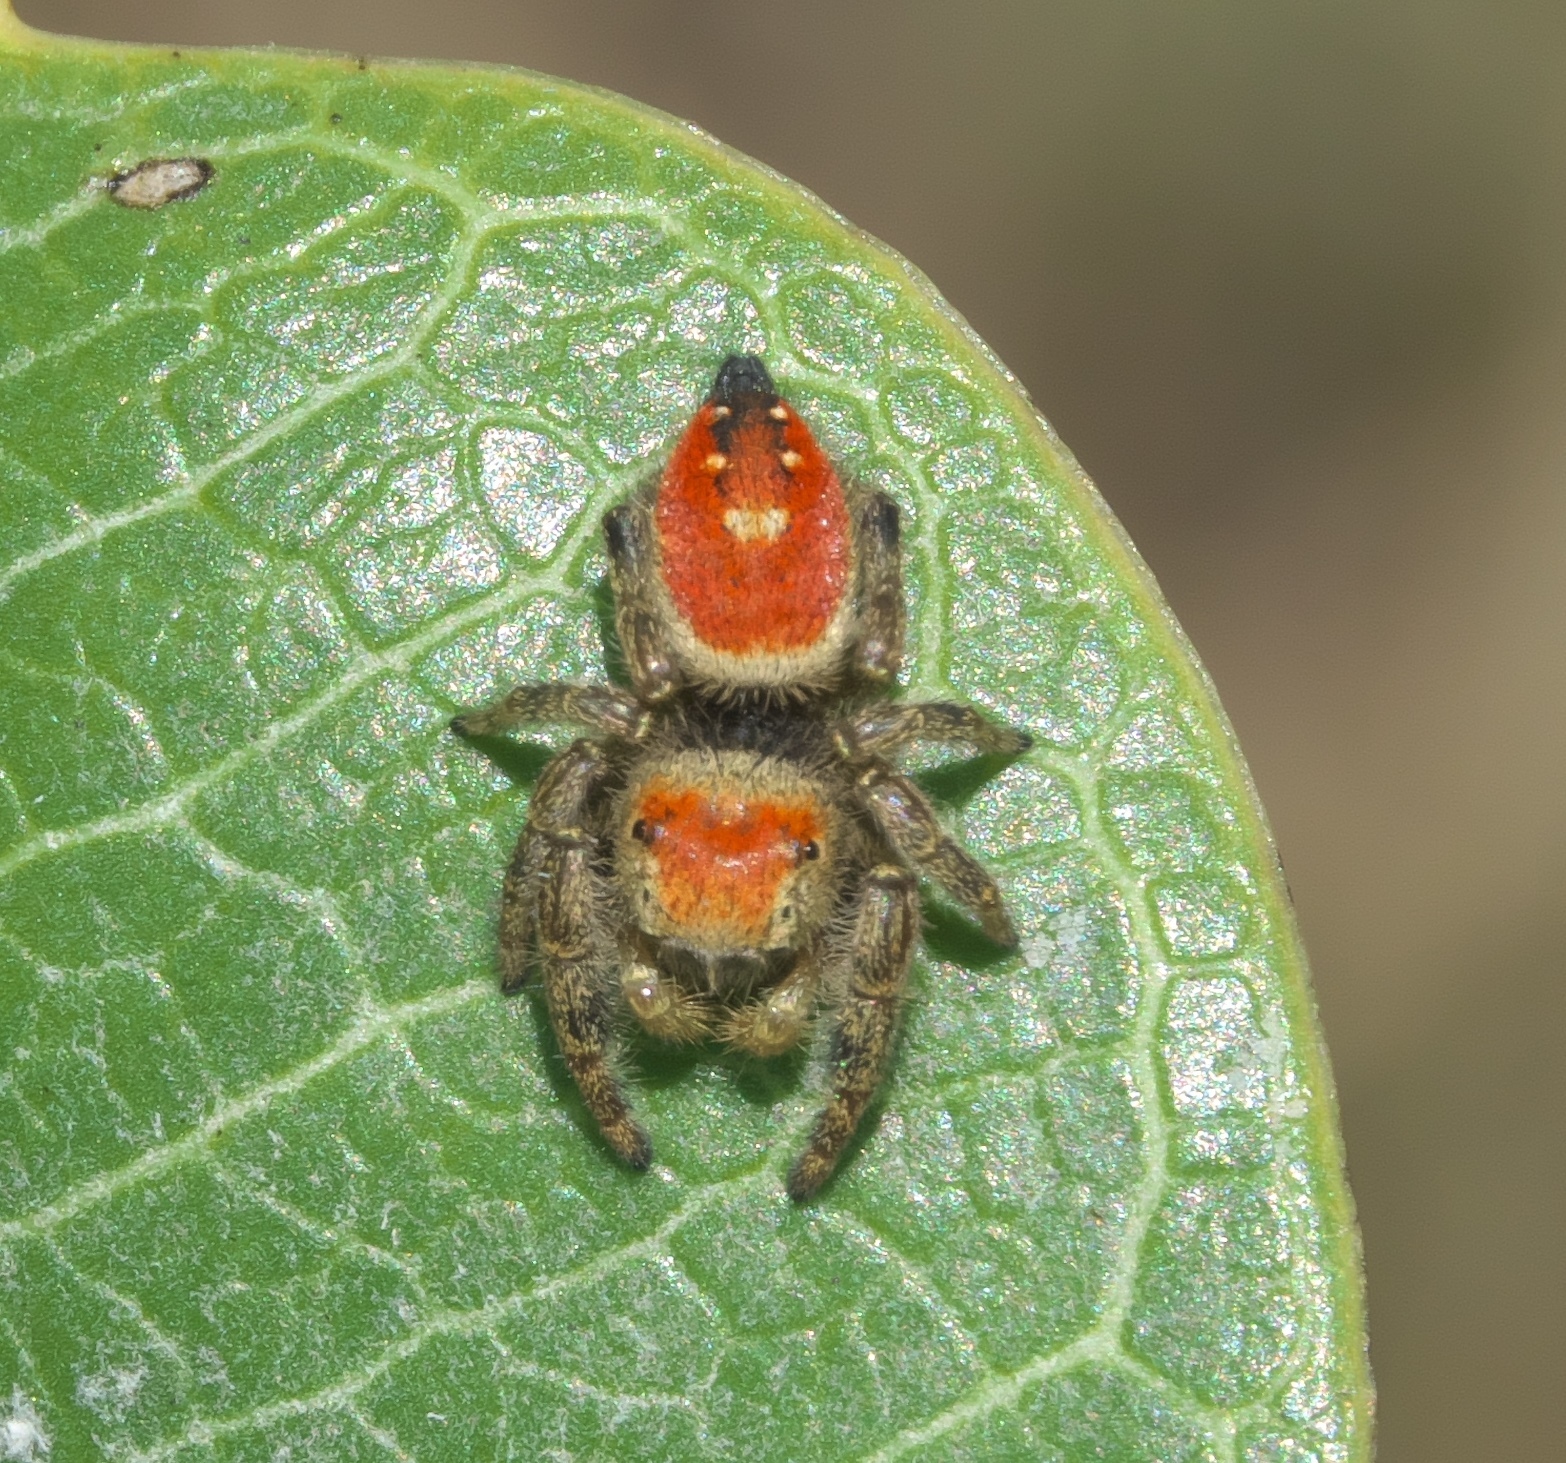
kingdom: Animalia
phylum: Arthropoda
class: Arachnida
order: Araneae
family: Salticidae
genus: Phidippus
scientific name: Phidippus apacheanus
